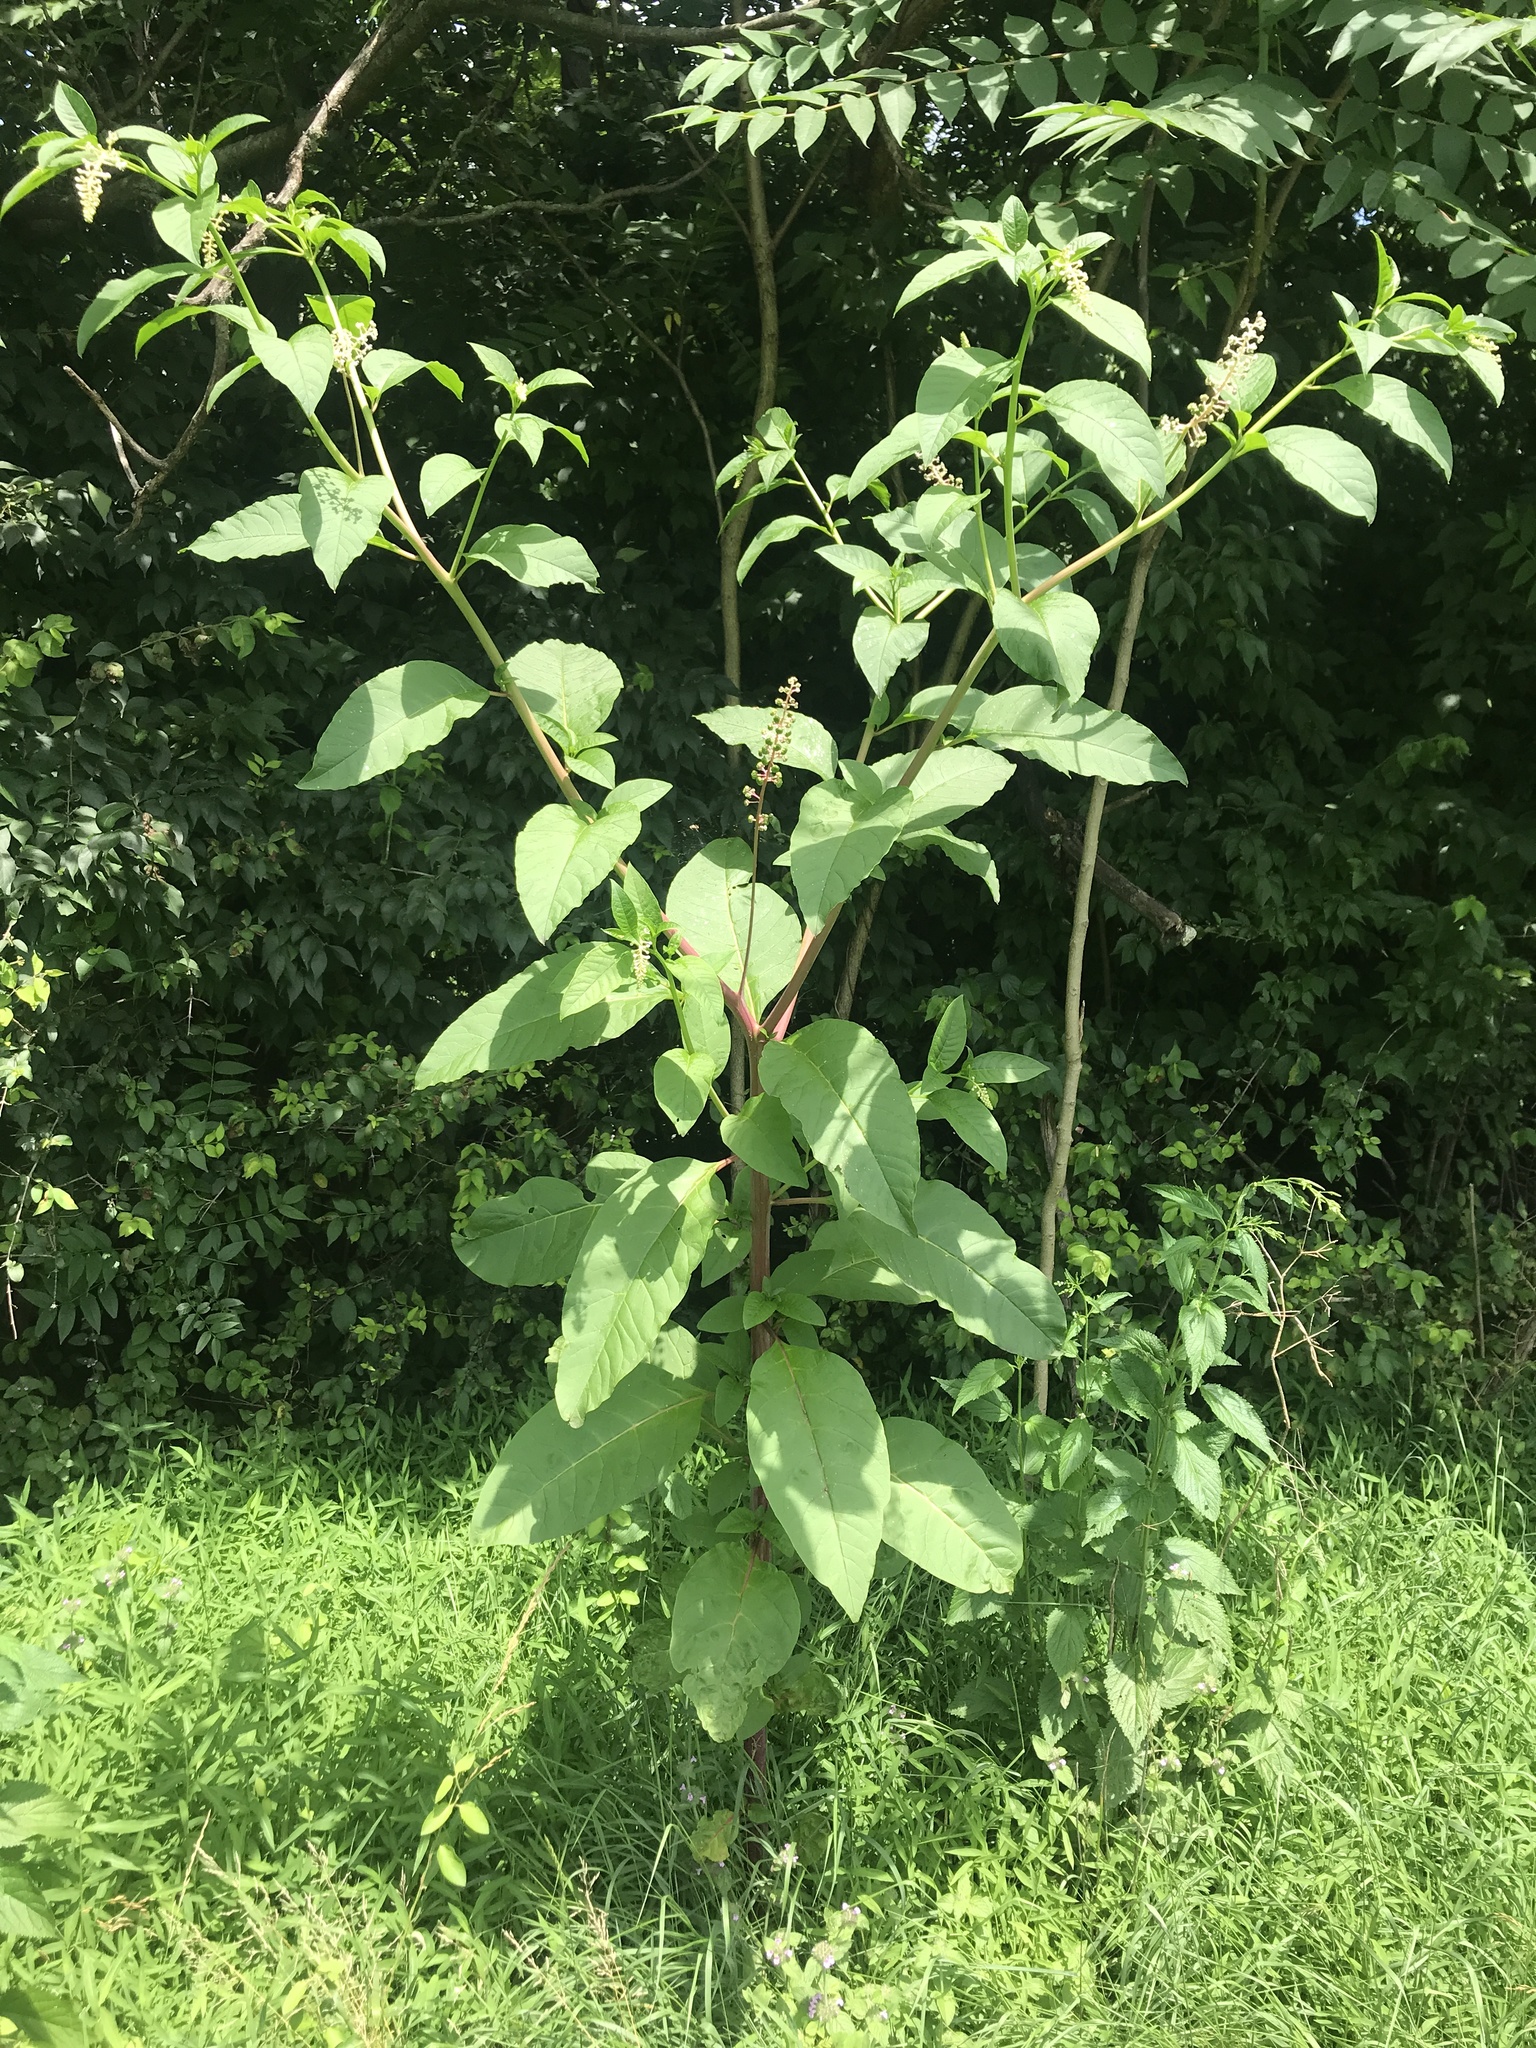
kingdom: Plantae
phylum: Tracheophyta
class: Magnoliopsida
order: Caryophyllales
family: Phytolaccaceae
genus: Phytolacca
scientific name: Phytolacca americana
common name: American pokeweed
